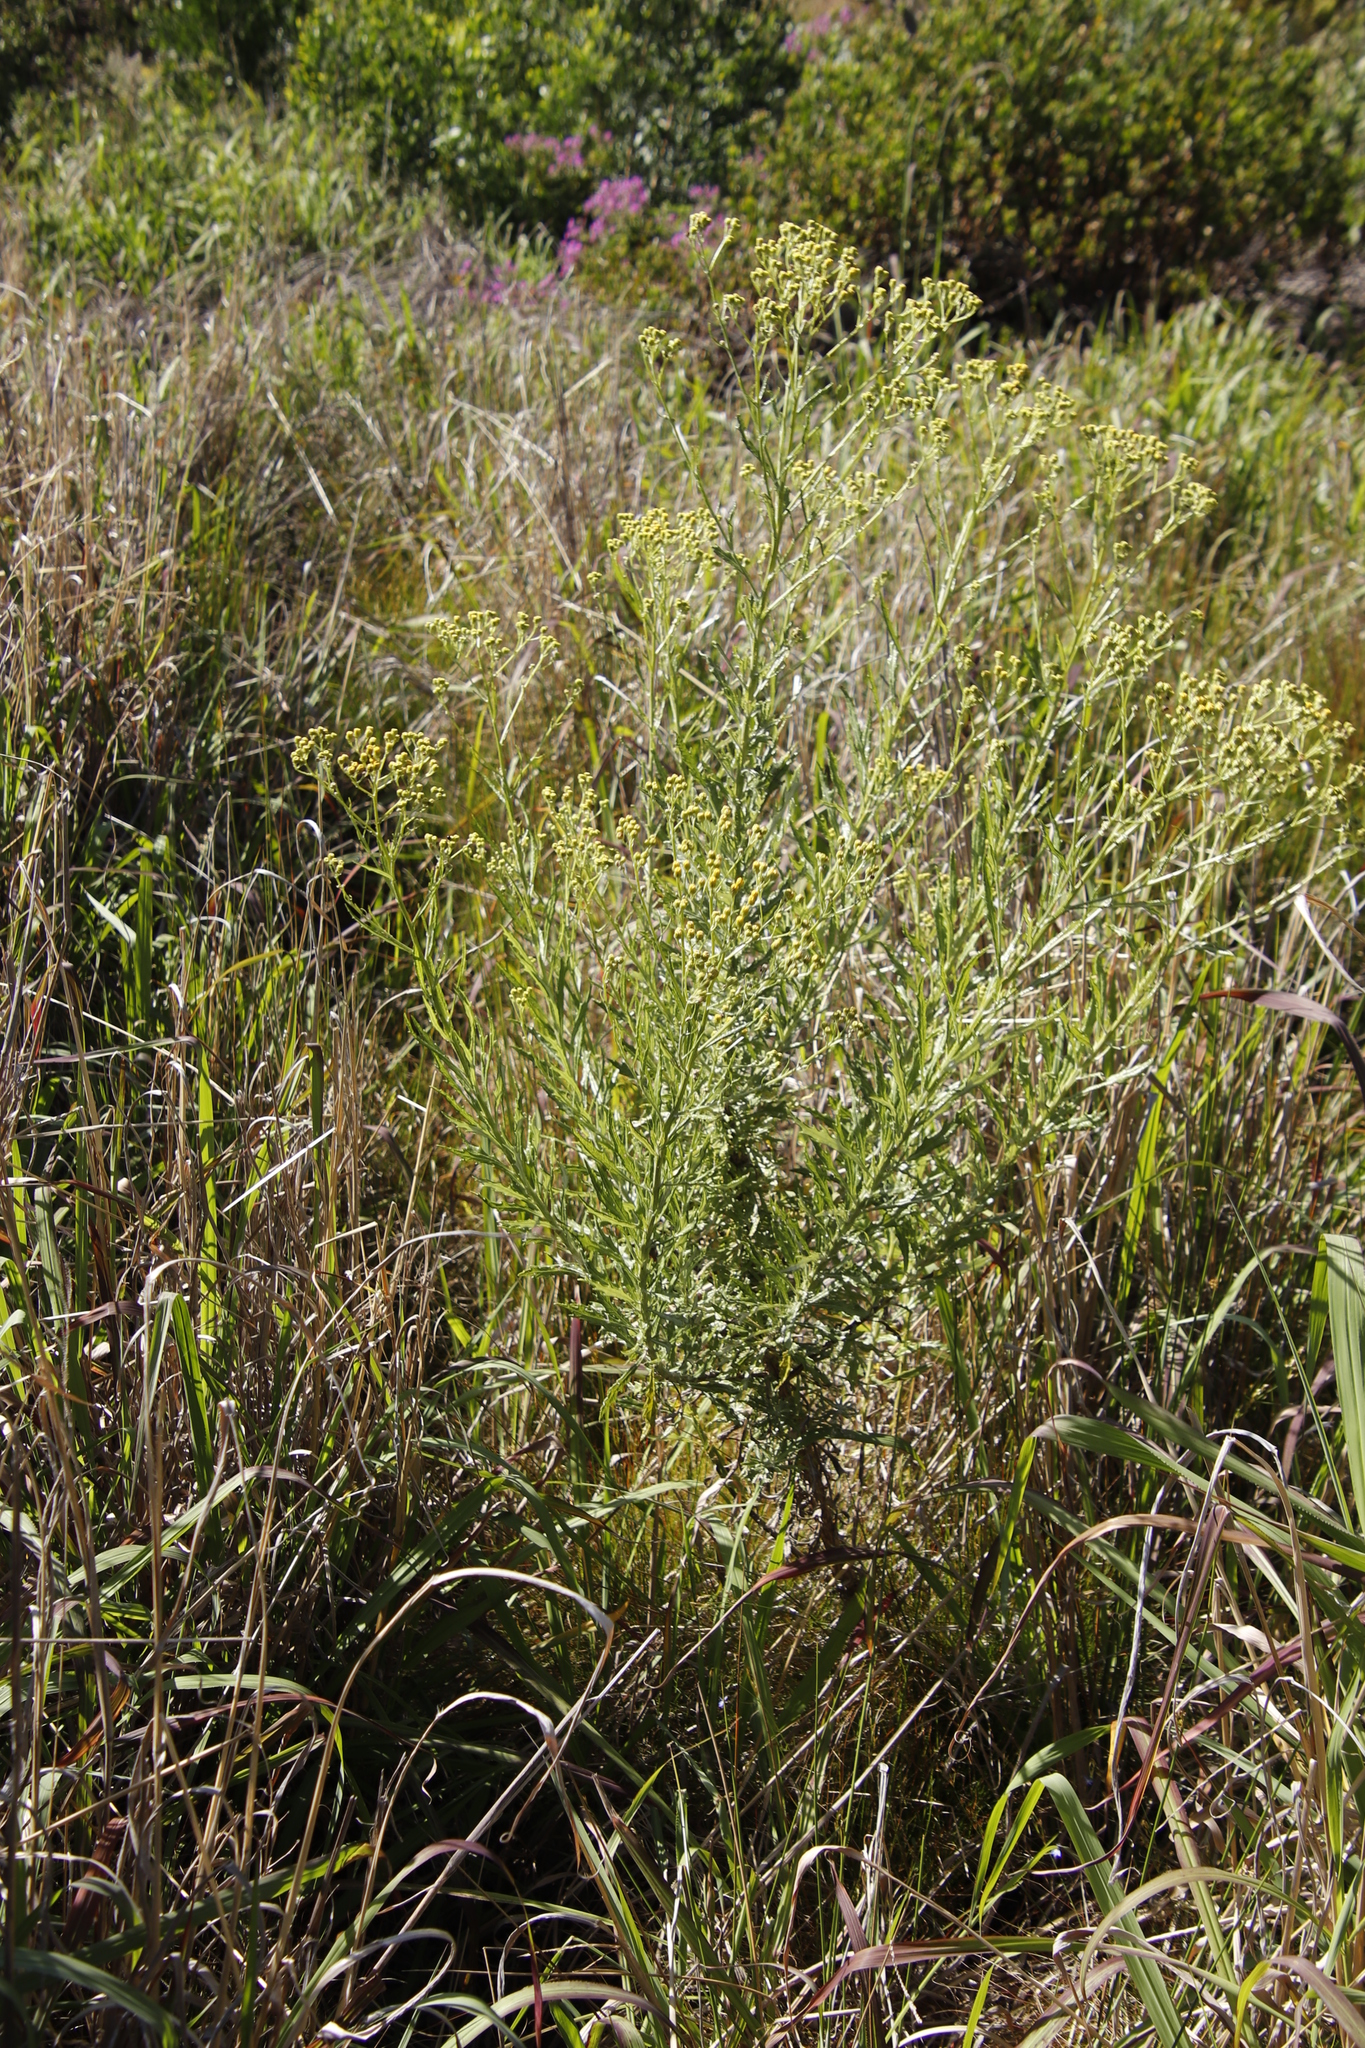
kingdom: Plantae
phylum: Tracheophyta
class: Magnoliopsida
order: Asterales
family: Asteraceae
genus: Senecio
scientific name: Senecio pterophorus
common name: Shoddy ragwort
